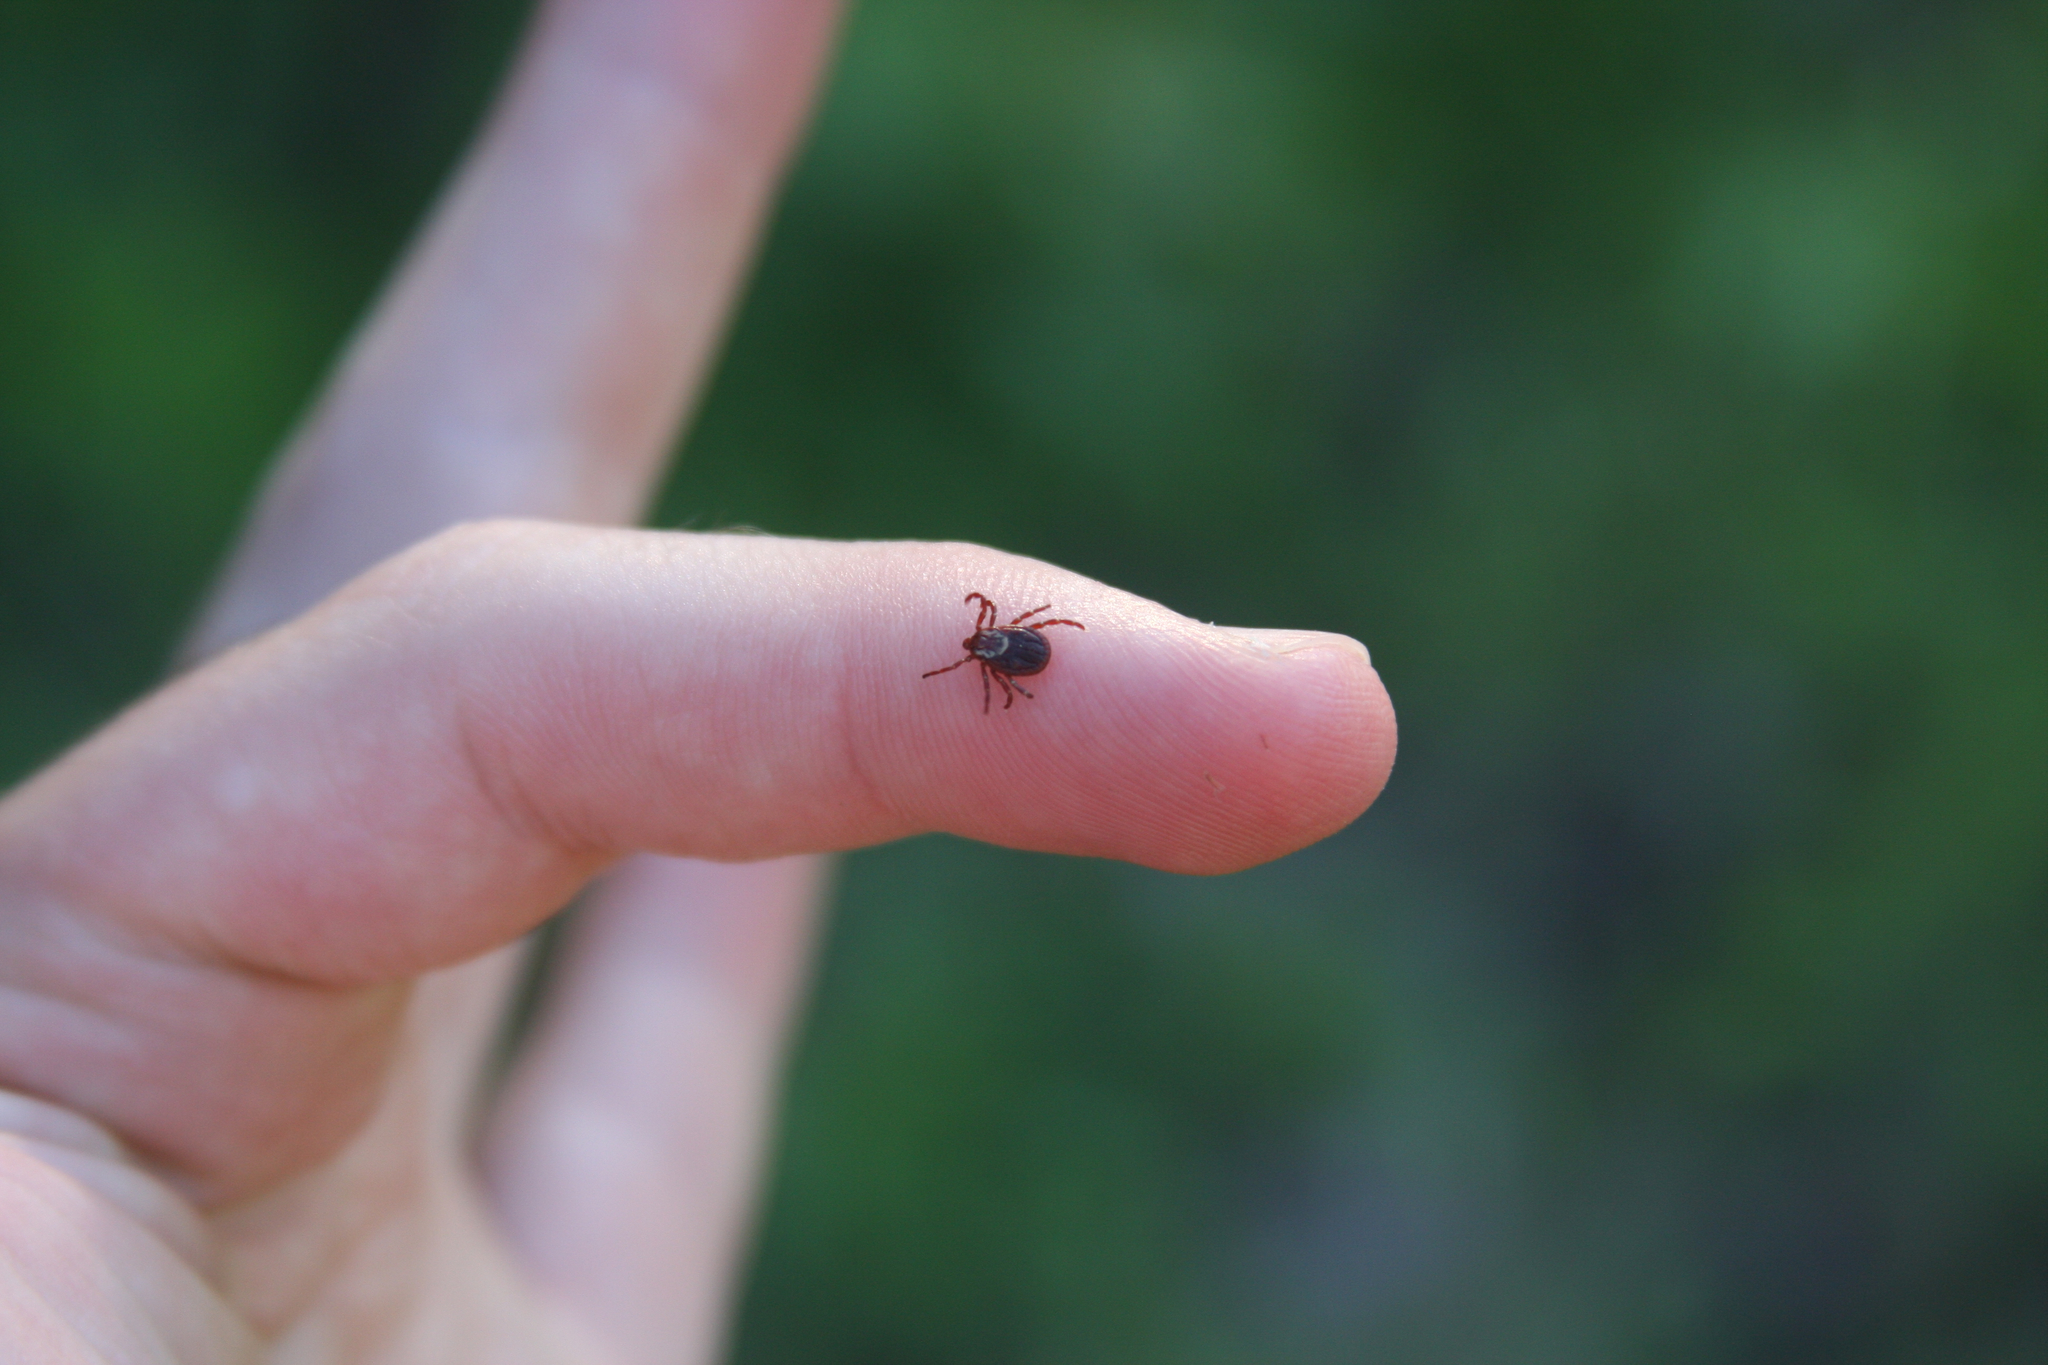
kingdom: Animalia
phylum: Arthropoda
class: Arachnida
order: Ixodida
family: Ixodidae
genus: Dermacentor
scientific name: Dermacentor variabilis
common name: American dog tick
